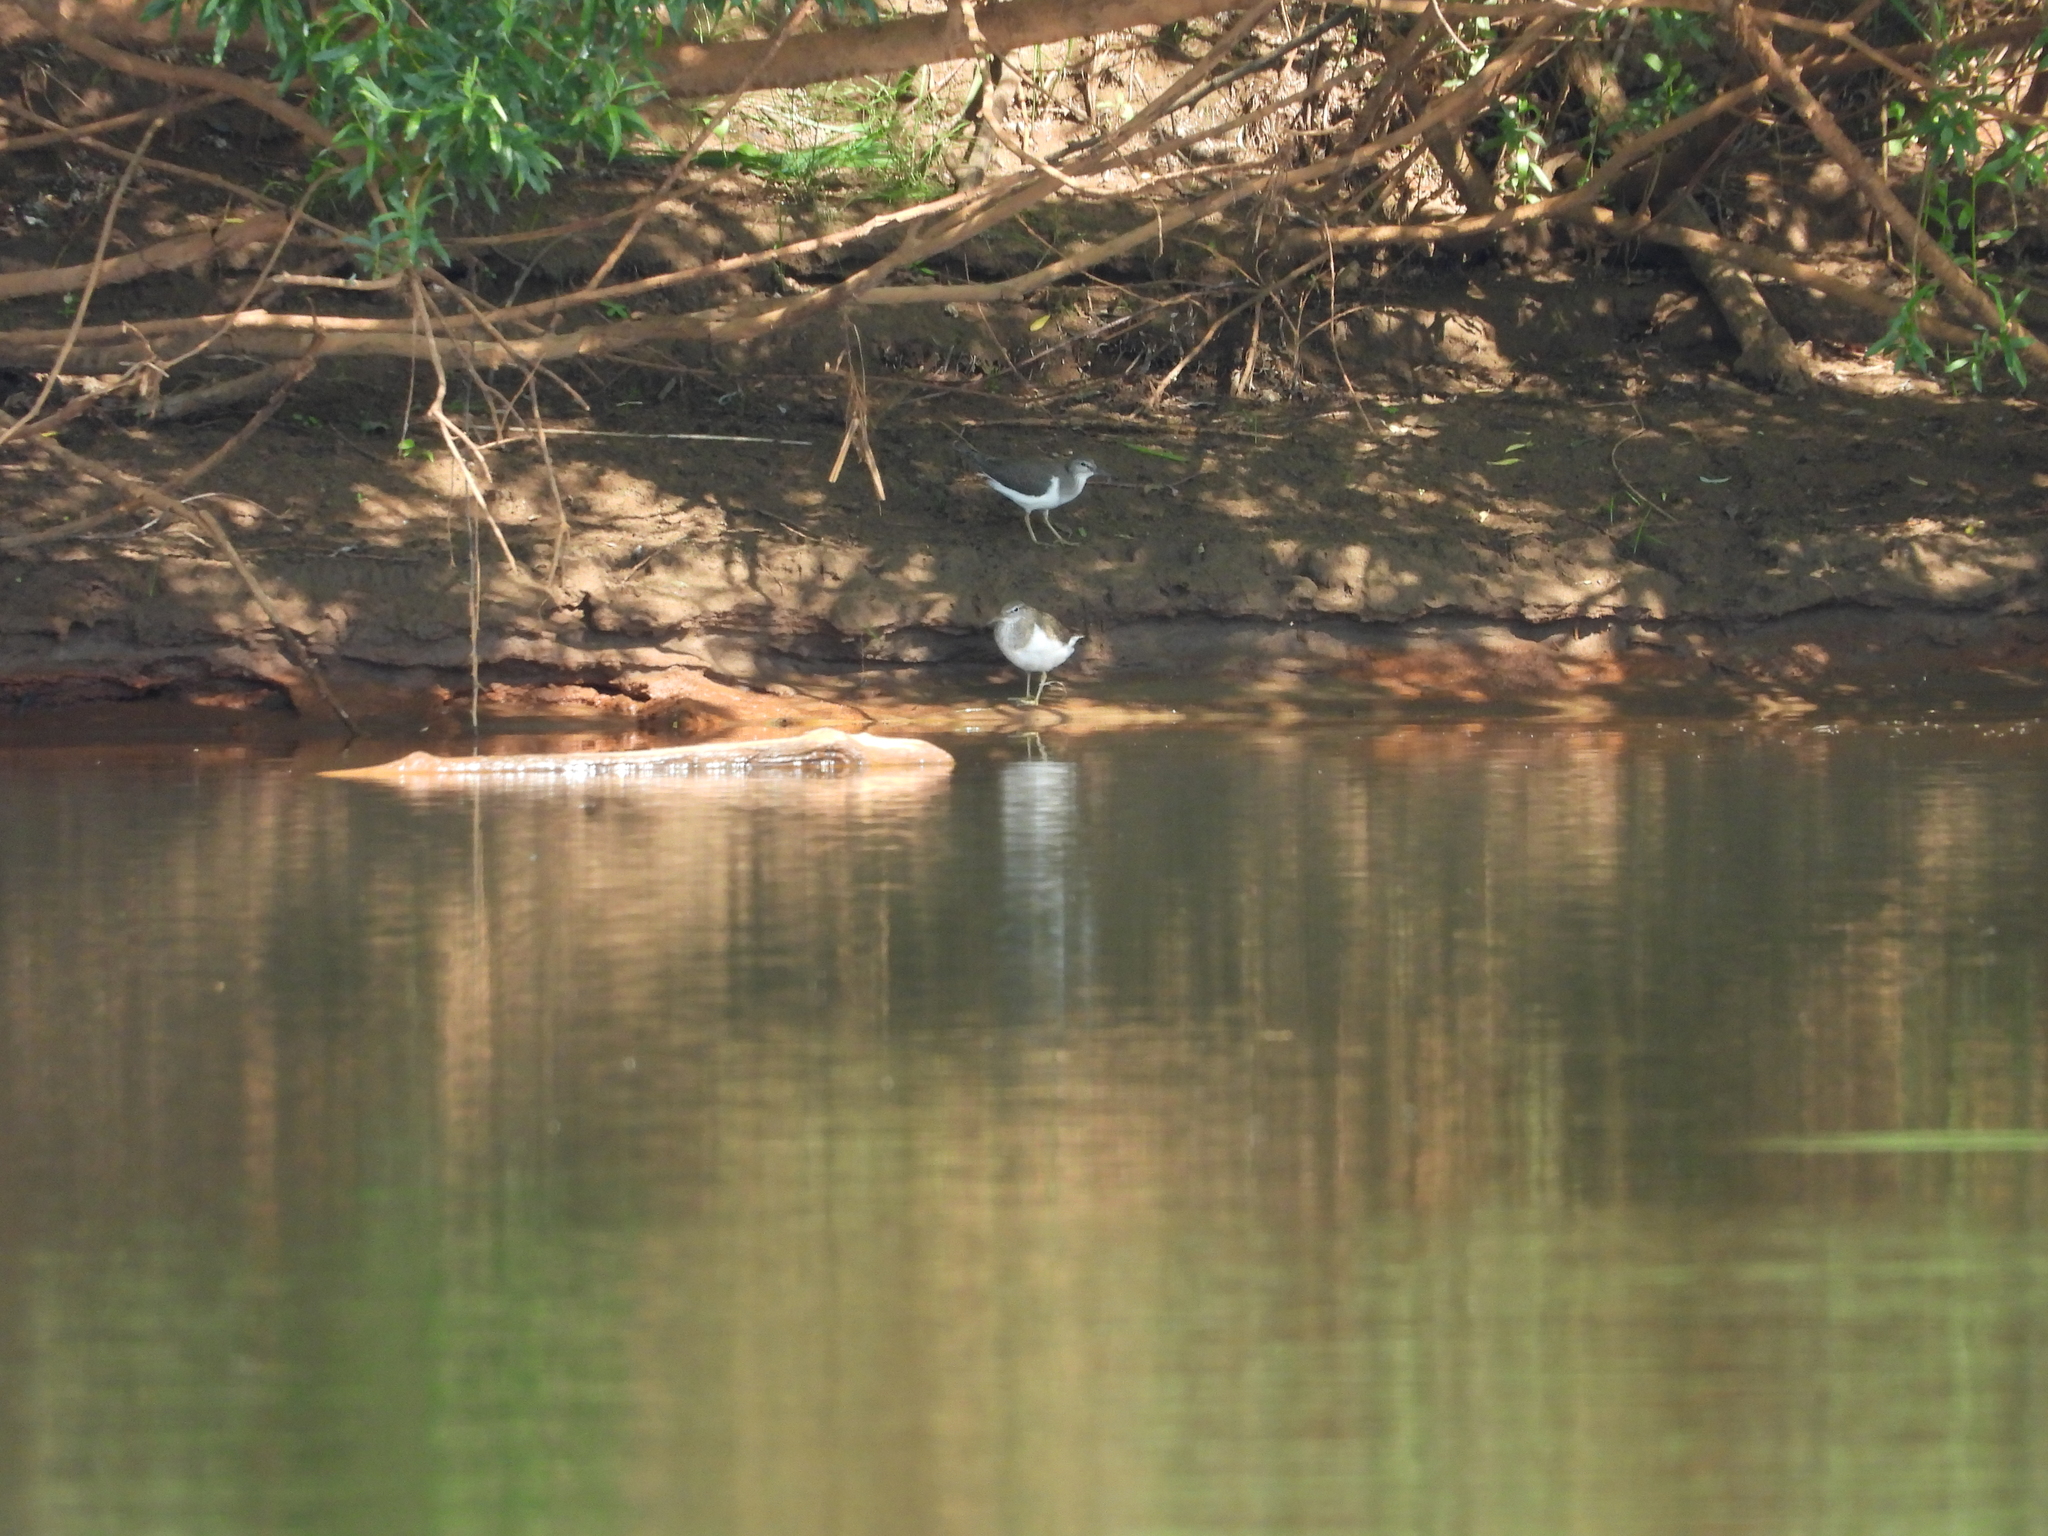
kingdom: Animalia
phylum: Chordata
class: Aves
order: Charadriiformes
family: Scolopacidae
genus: Actitis
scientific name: Actitis hypoleucos
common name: Common sandpiper
